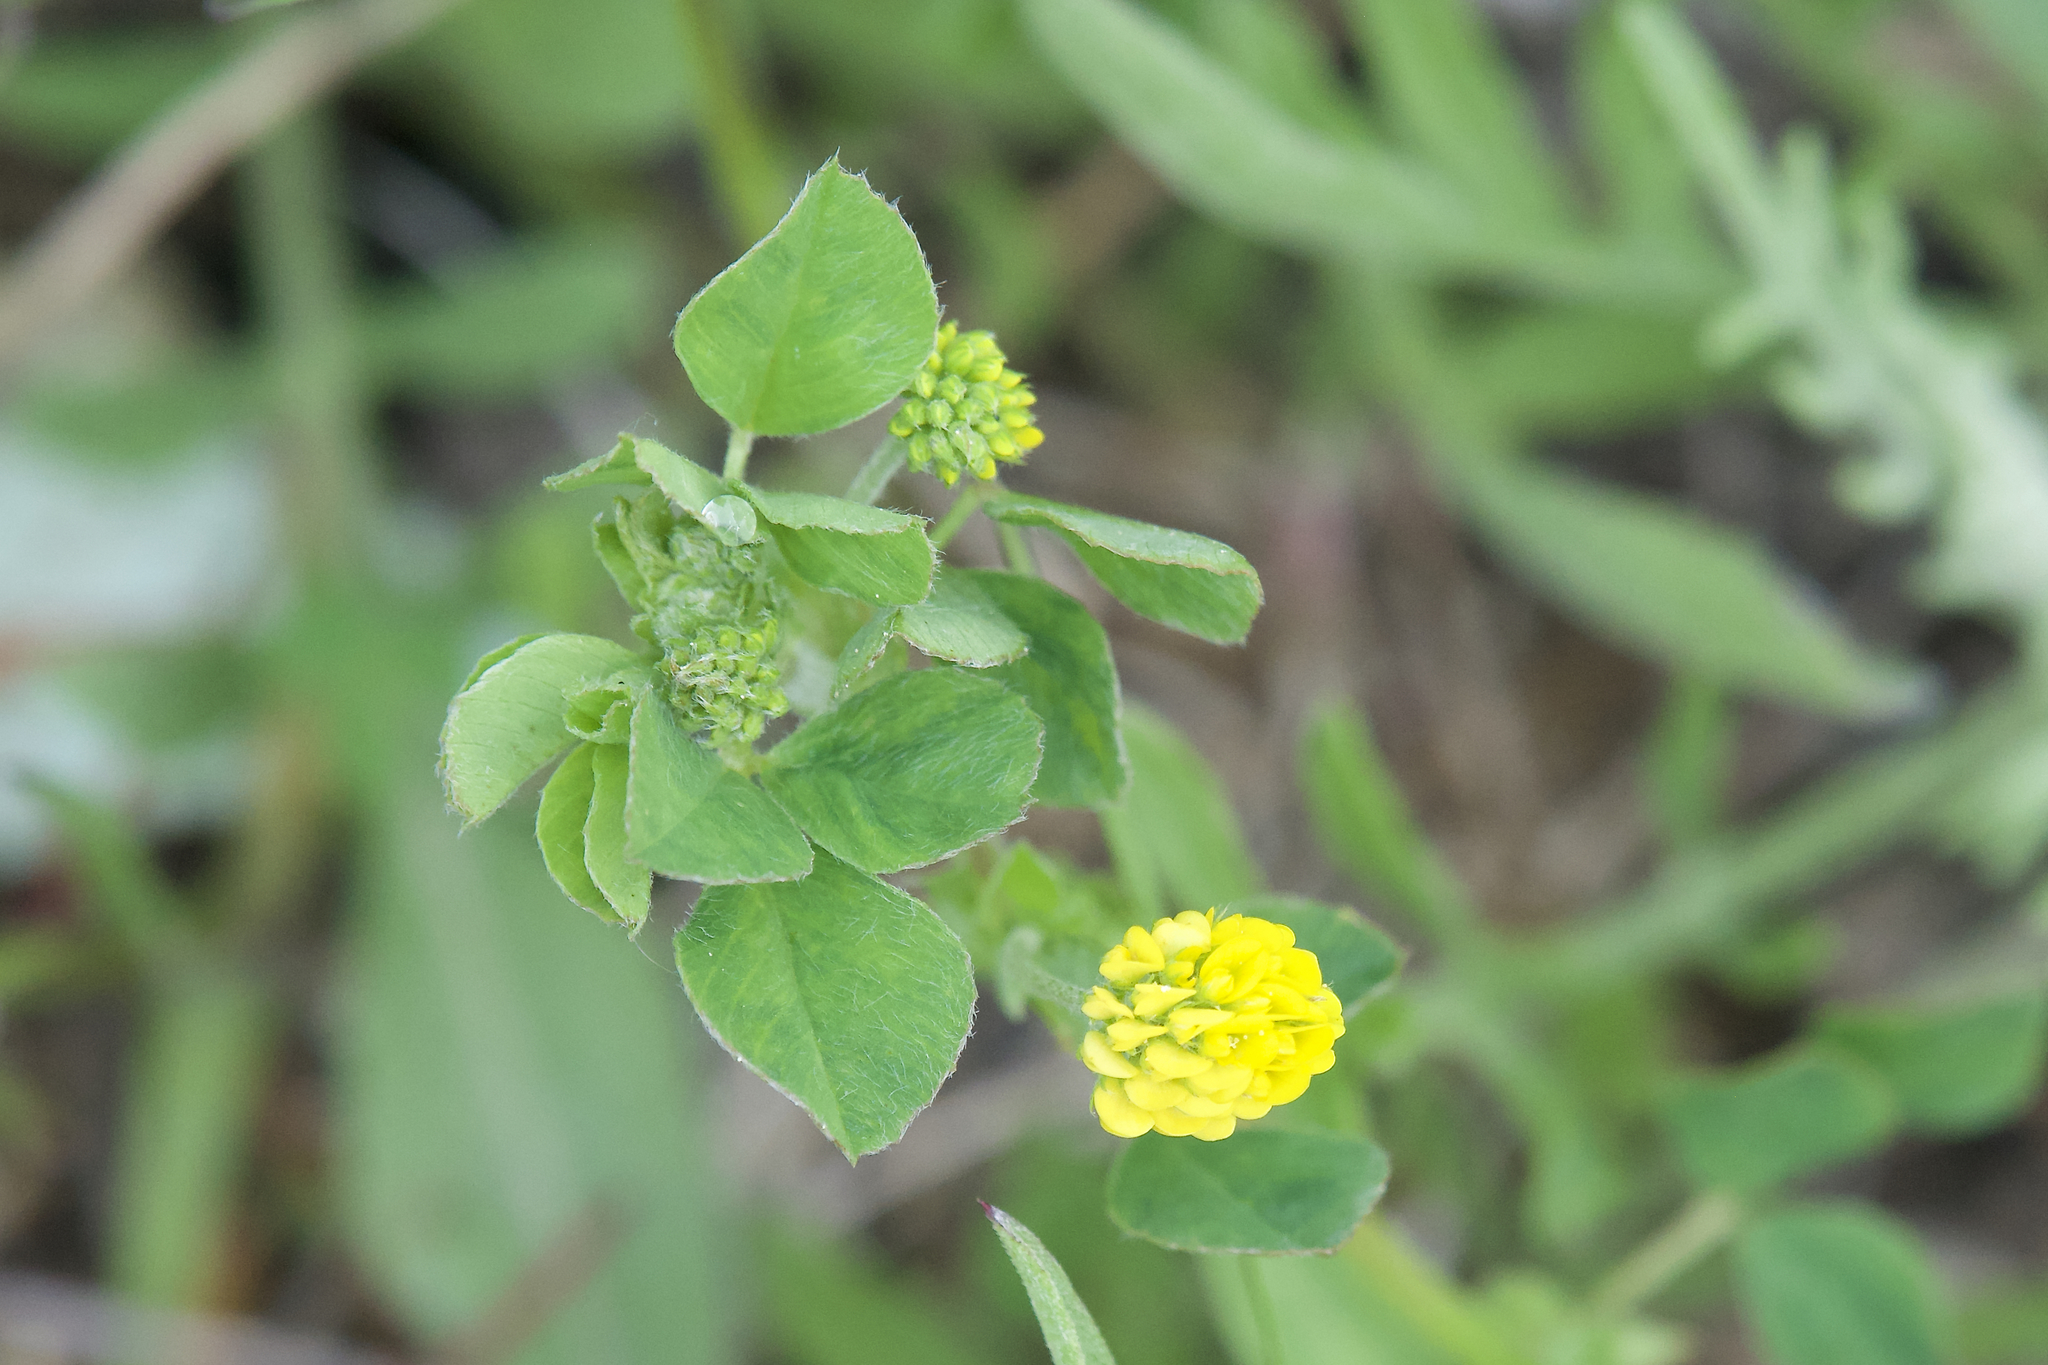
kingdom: Plantae
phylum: Tracheophyta
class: Magnoliopsida
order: Fabales
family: Fabaceae
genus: Medicago
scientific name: Medicago lupulina
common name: Black medick
